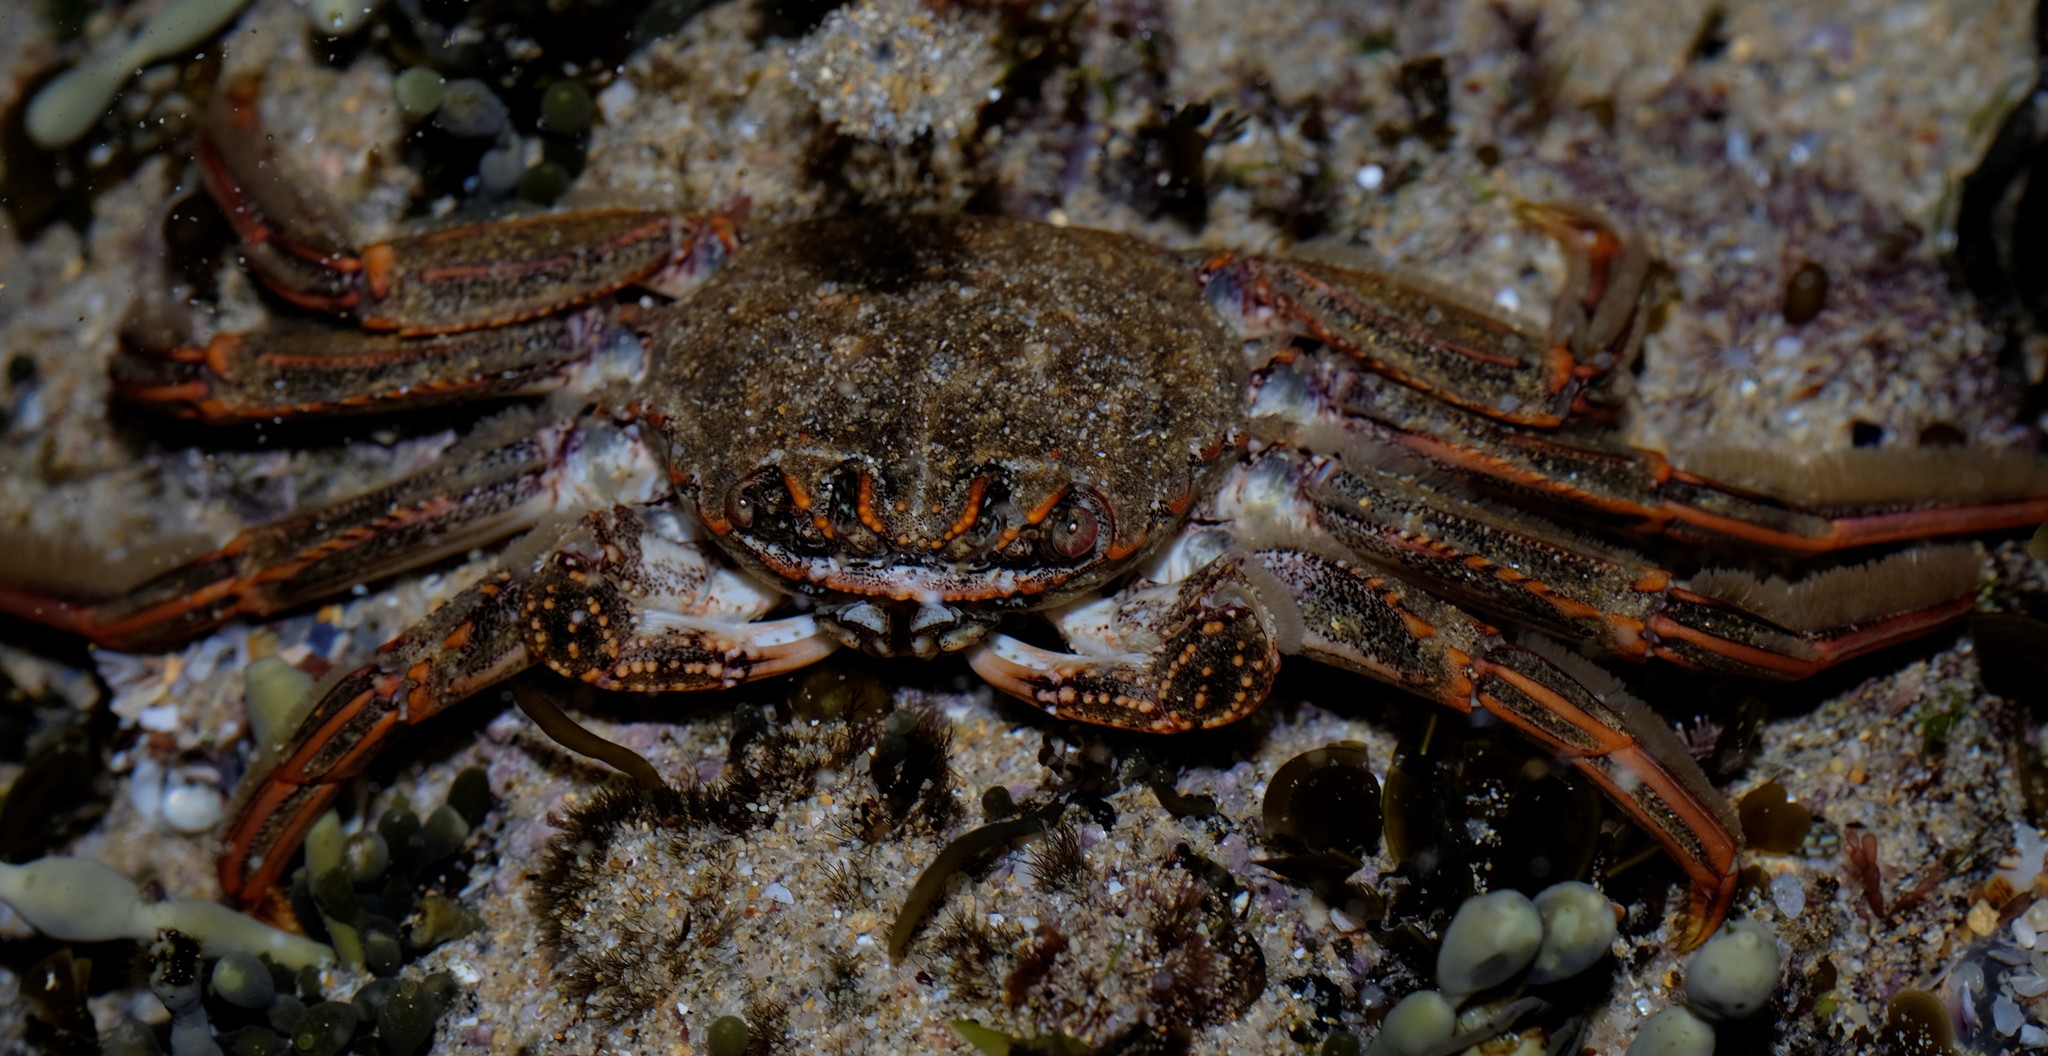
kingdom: Animalia
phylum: Arthropoda
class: Malacostraca
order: Decapoda
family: Plagusiidae
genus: Guinusia
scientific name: Guinusia chabrus
